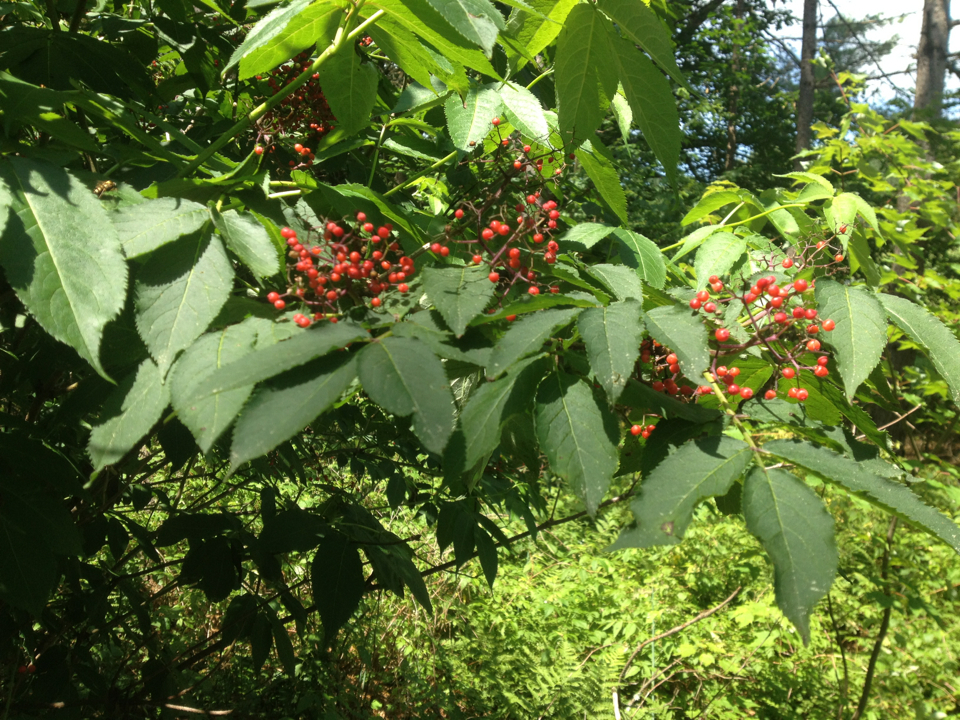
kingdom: Plantae
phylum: Tracheophyta
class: Magnoliopsida
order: Dipsacales
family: Viburnaceae
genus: Sambucus
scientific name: Sambucus racemosa
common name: Red-berried elder
